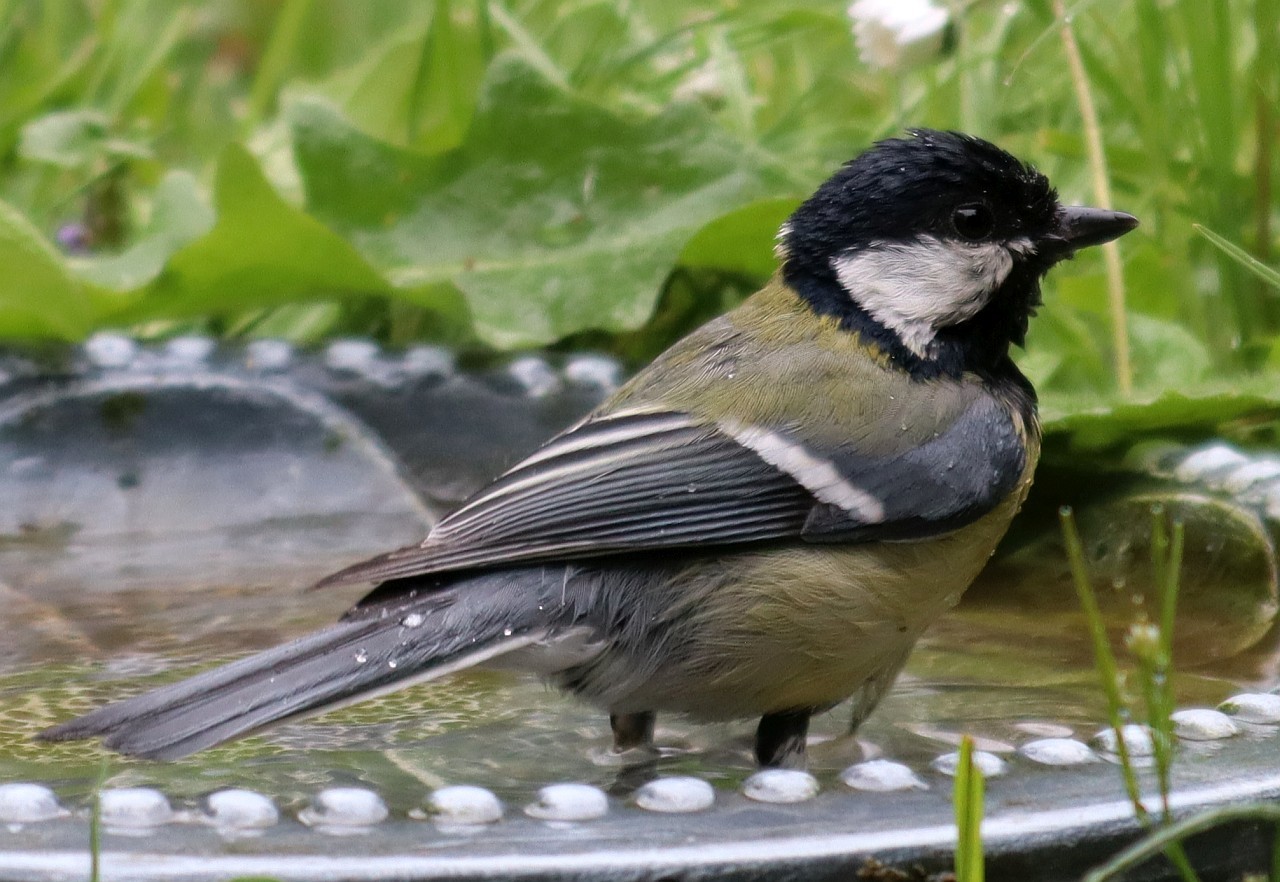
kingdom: Animalia
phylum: Chordata
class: Aves
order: Passeriformes
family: Paridae
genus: Parus
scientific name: Parus major
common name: Great tit
